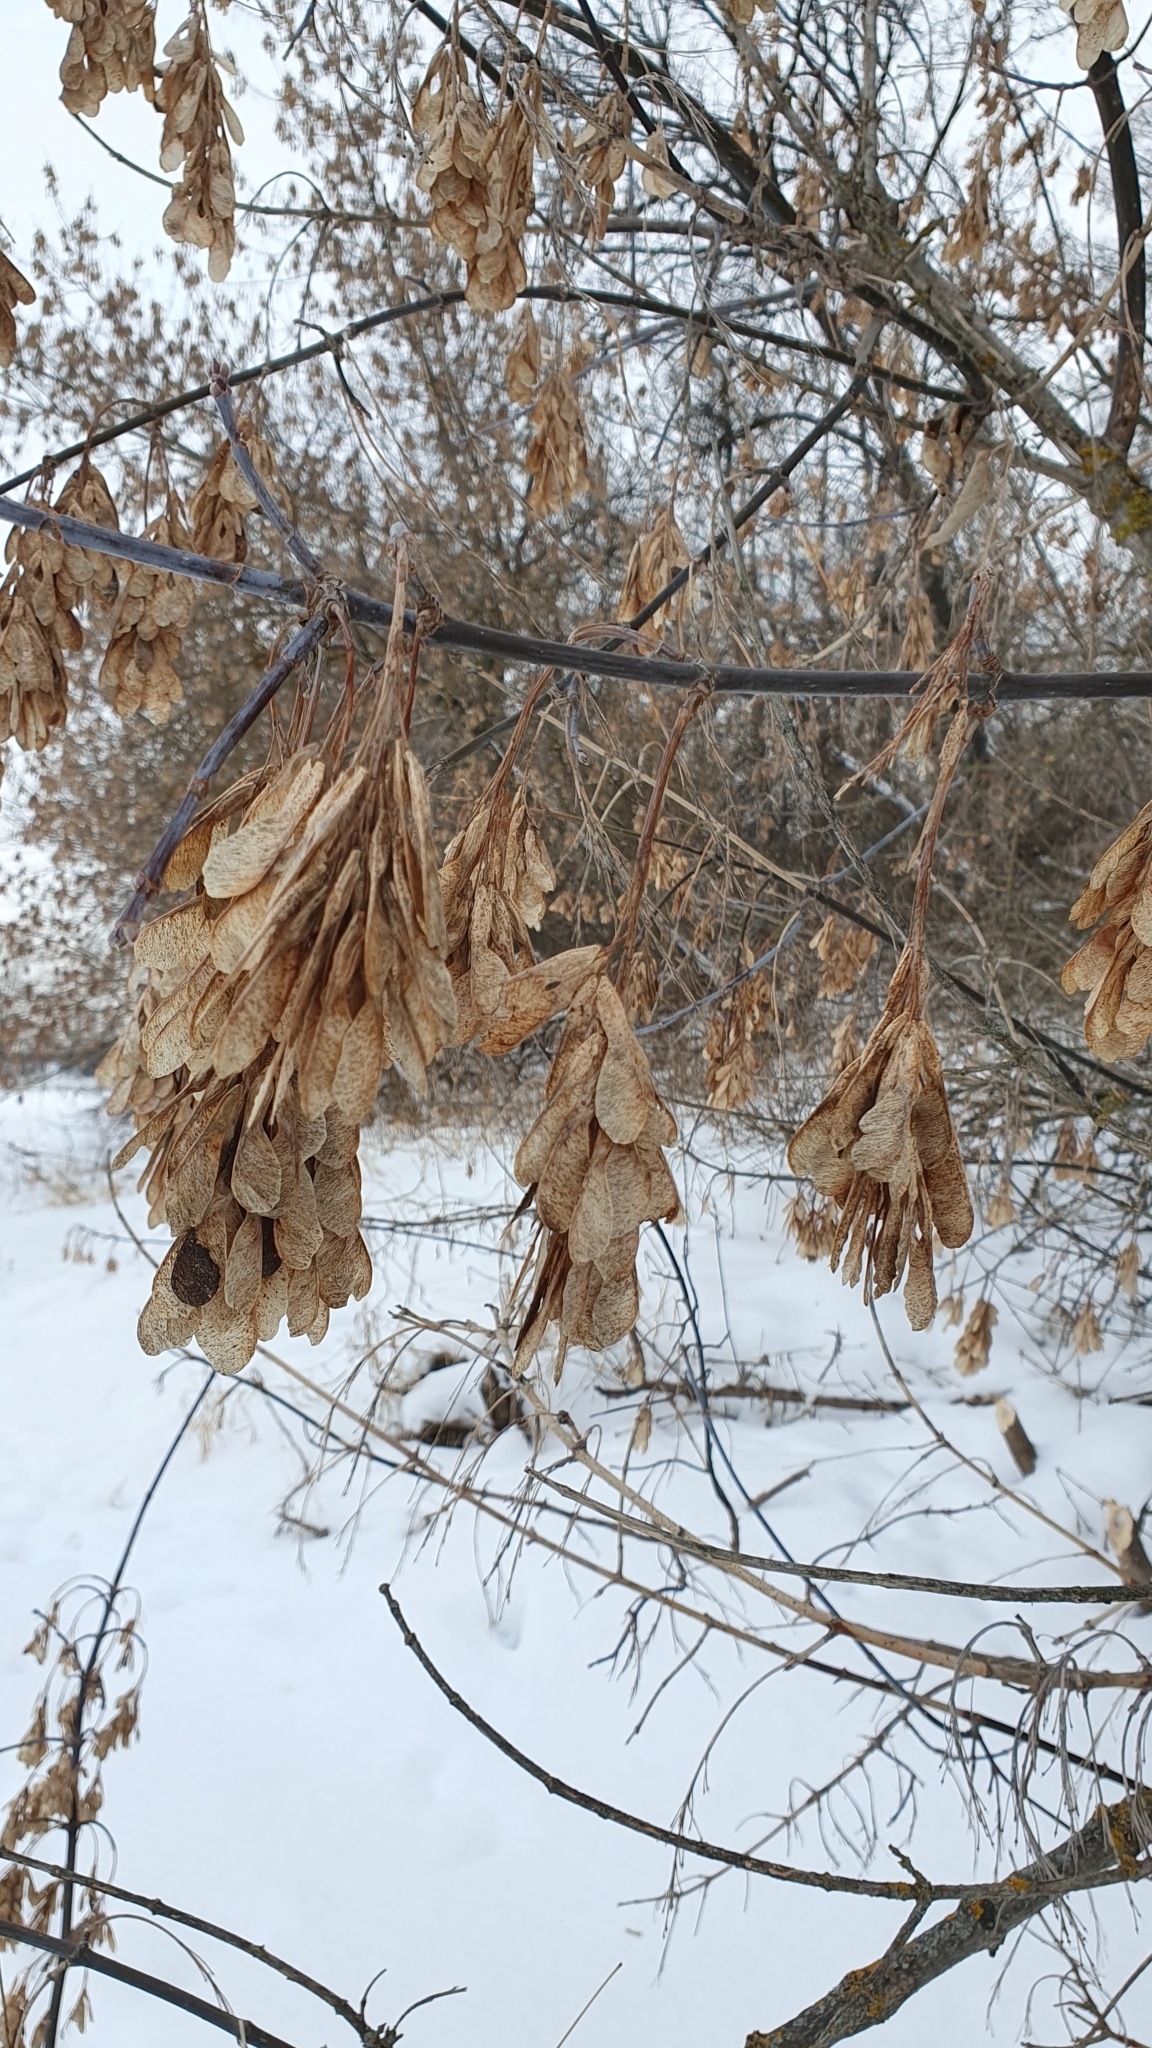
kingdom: Plantae
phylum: Tracheophyta
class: Magnoliopsida
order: Sapindales
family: Sapindaceae
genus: Acer
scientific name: Acer negundo
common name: Ashleaf maple
